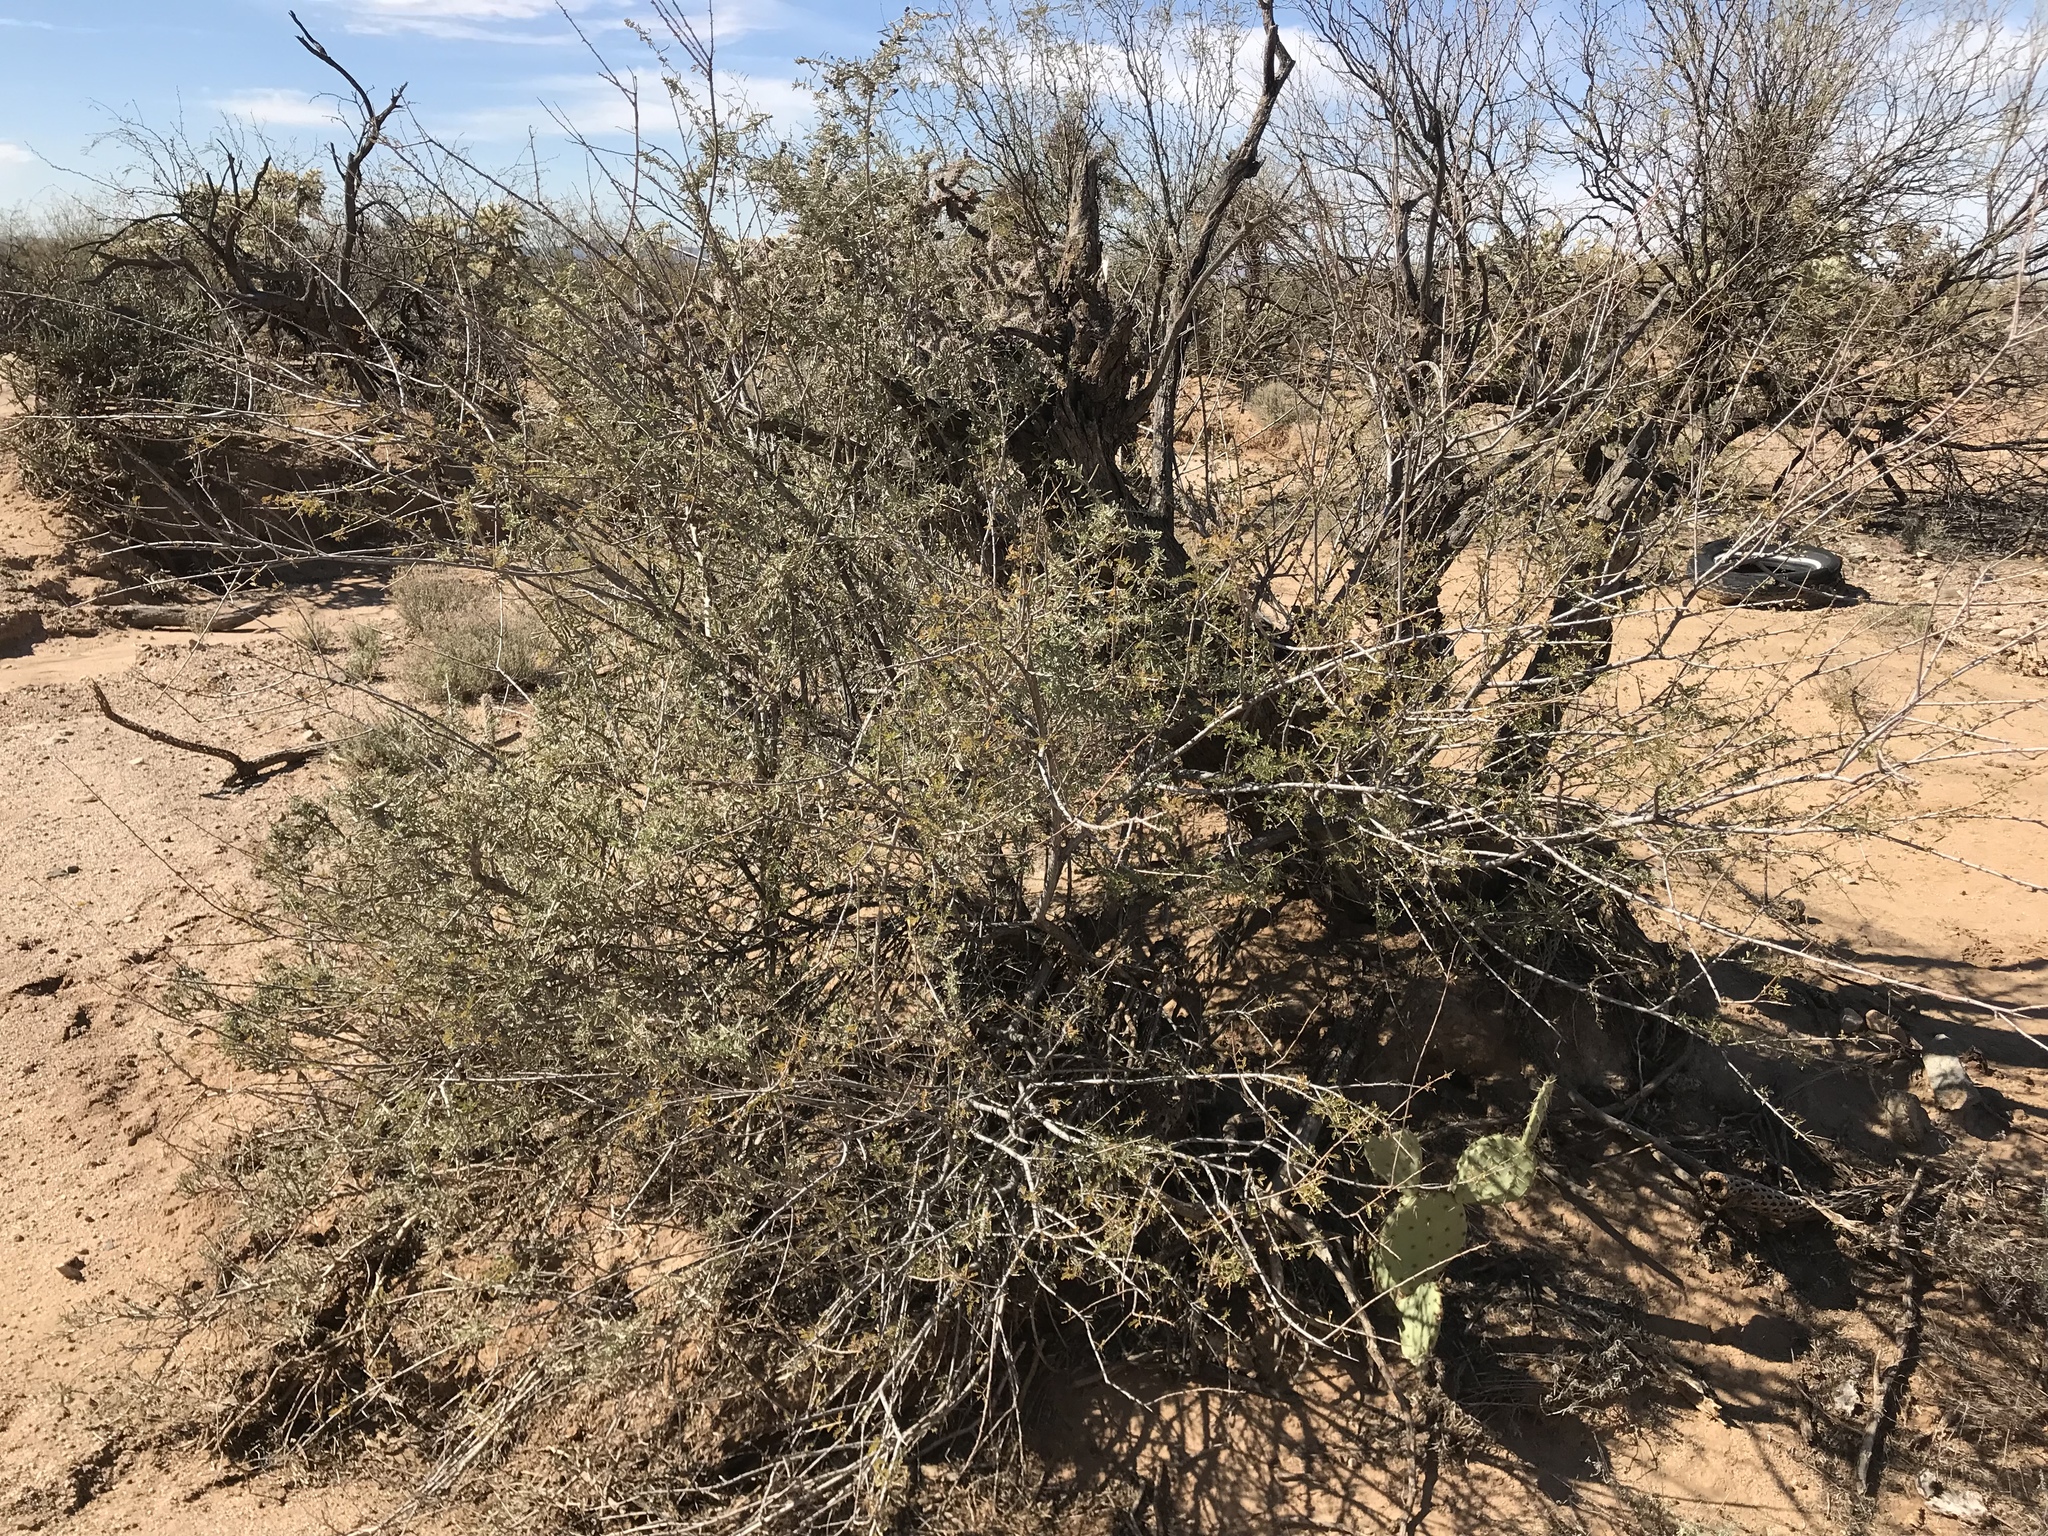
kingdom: Plantae
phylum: Tracheophyta
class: Magnoliopsida
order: Caryophyllales
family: Amaranthaceae
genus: Atriplex
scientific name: Atriplex canescens
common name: Four-wing saltbush
